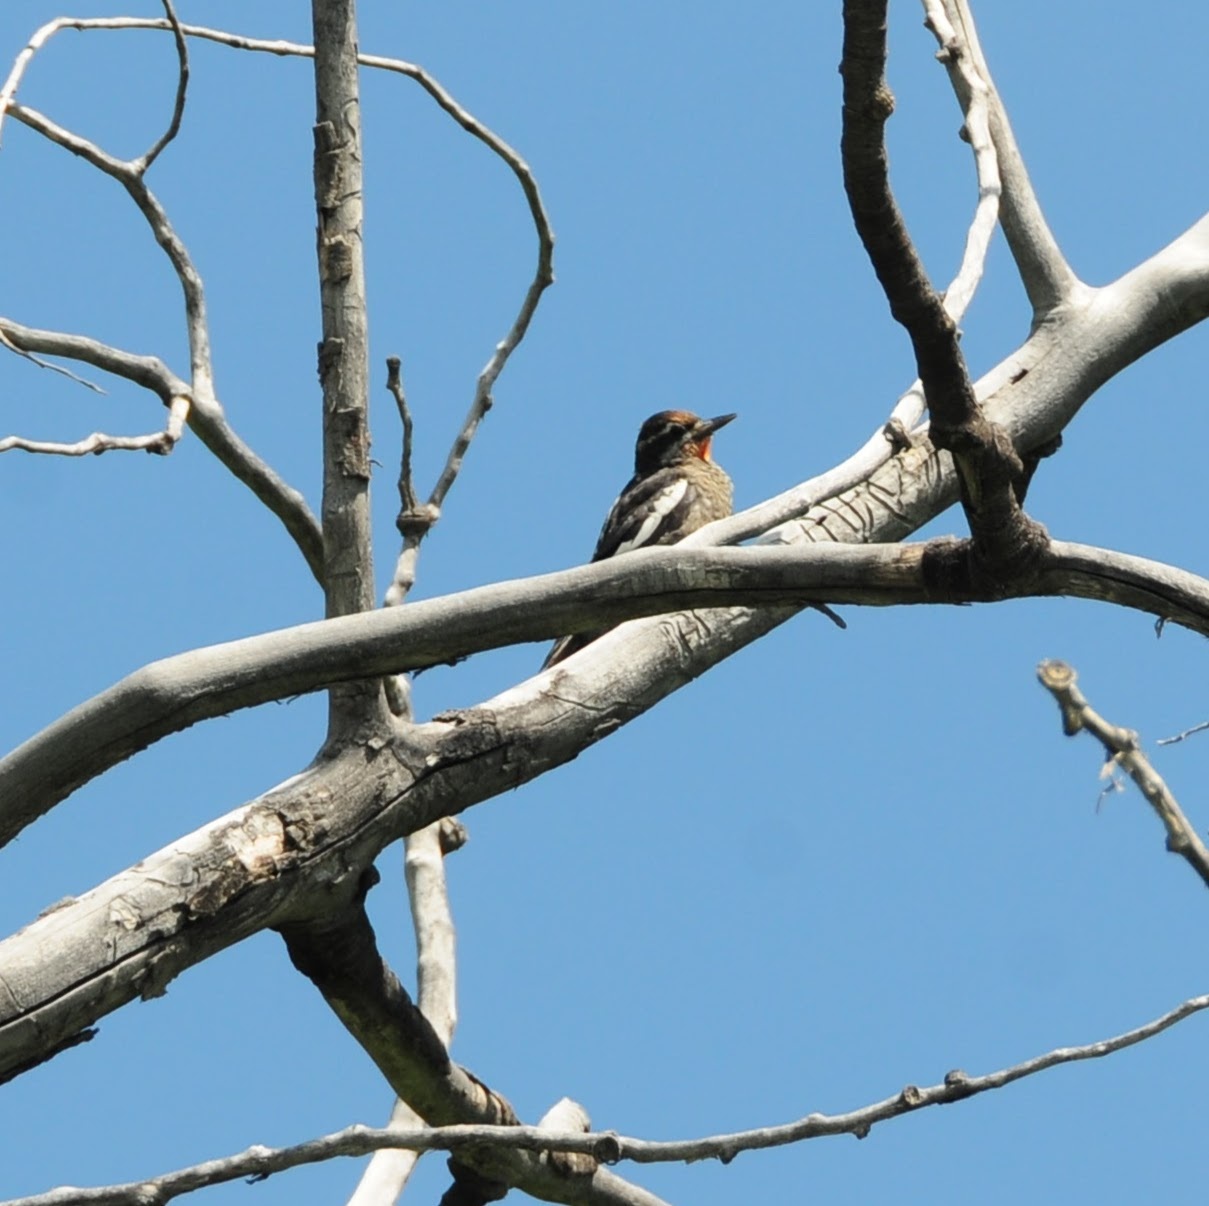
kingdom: Animalia
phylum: Chordata
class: Aves
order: Piciformes
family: Picidae
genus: Sphyrapicus
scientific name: Sphyrapicus nuchalis
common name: Red-naped sapsucker
